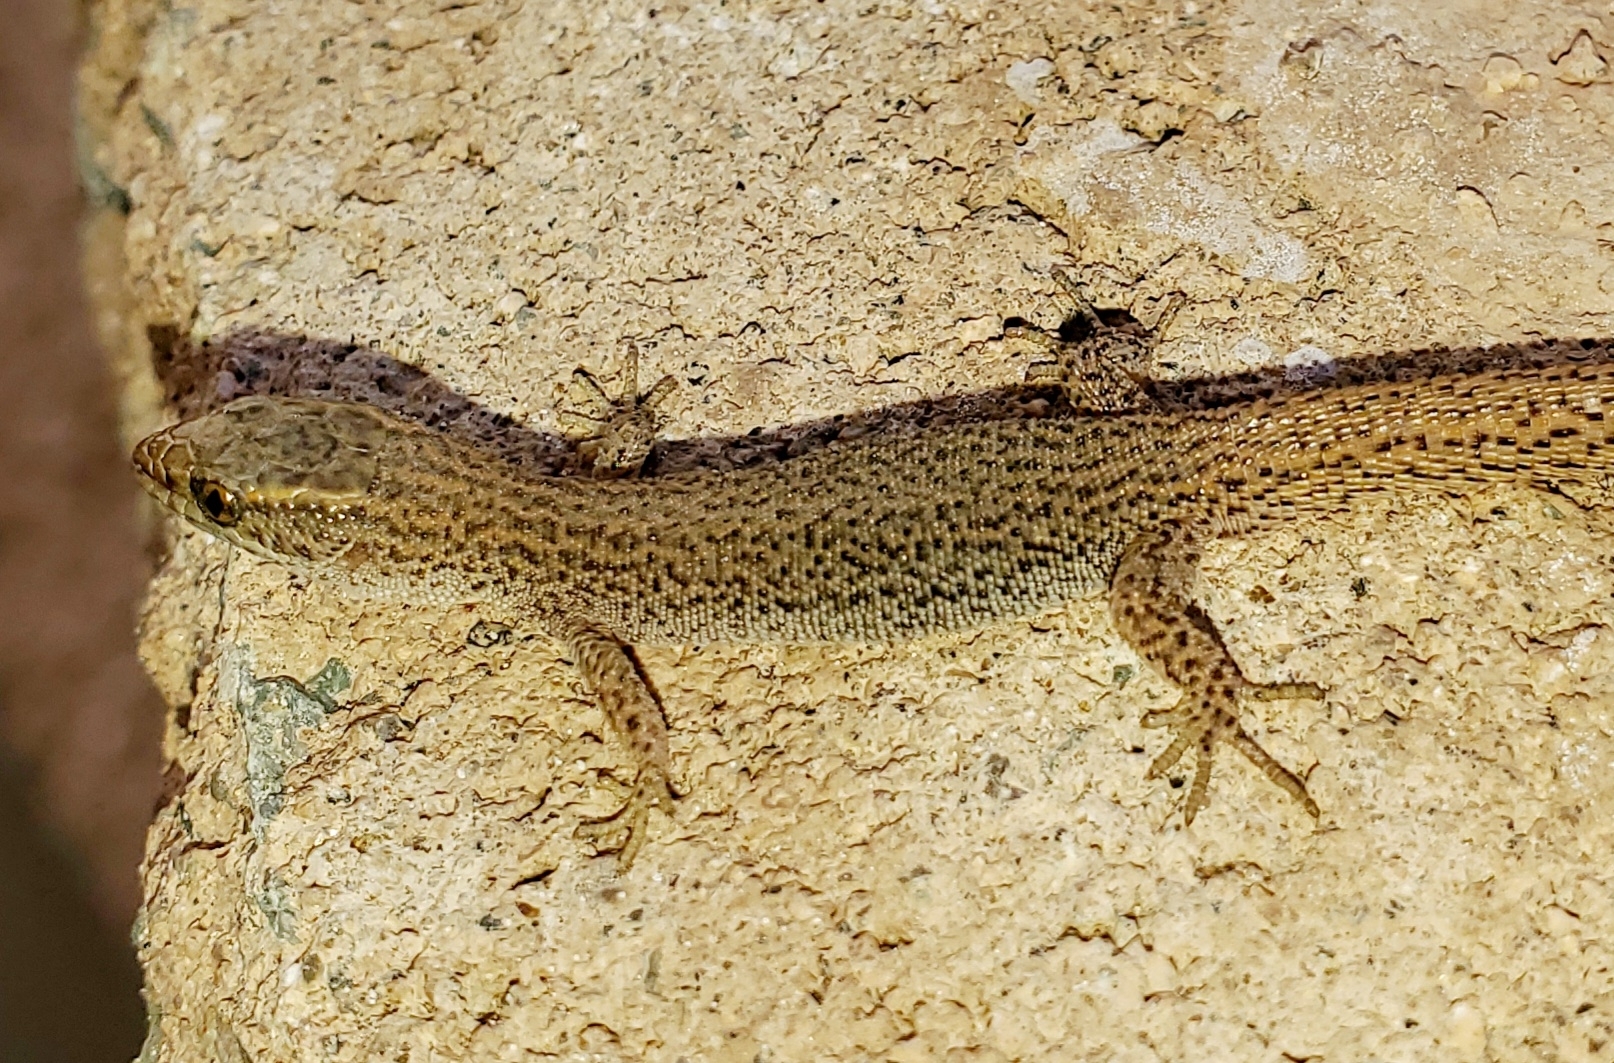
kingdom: Animalia
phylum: Chordata
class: Squamata
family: Xantusiidae
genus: Xantusia
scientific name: Xantusia vigilis
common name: Desert night lizard
